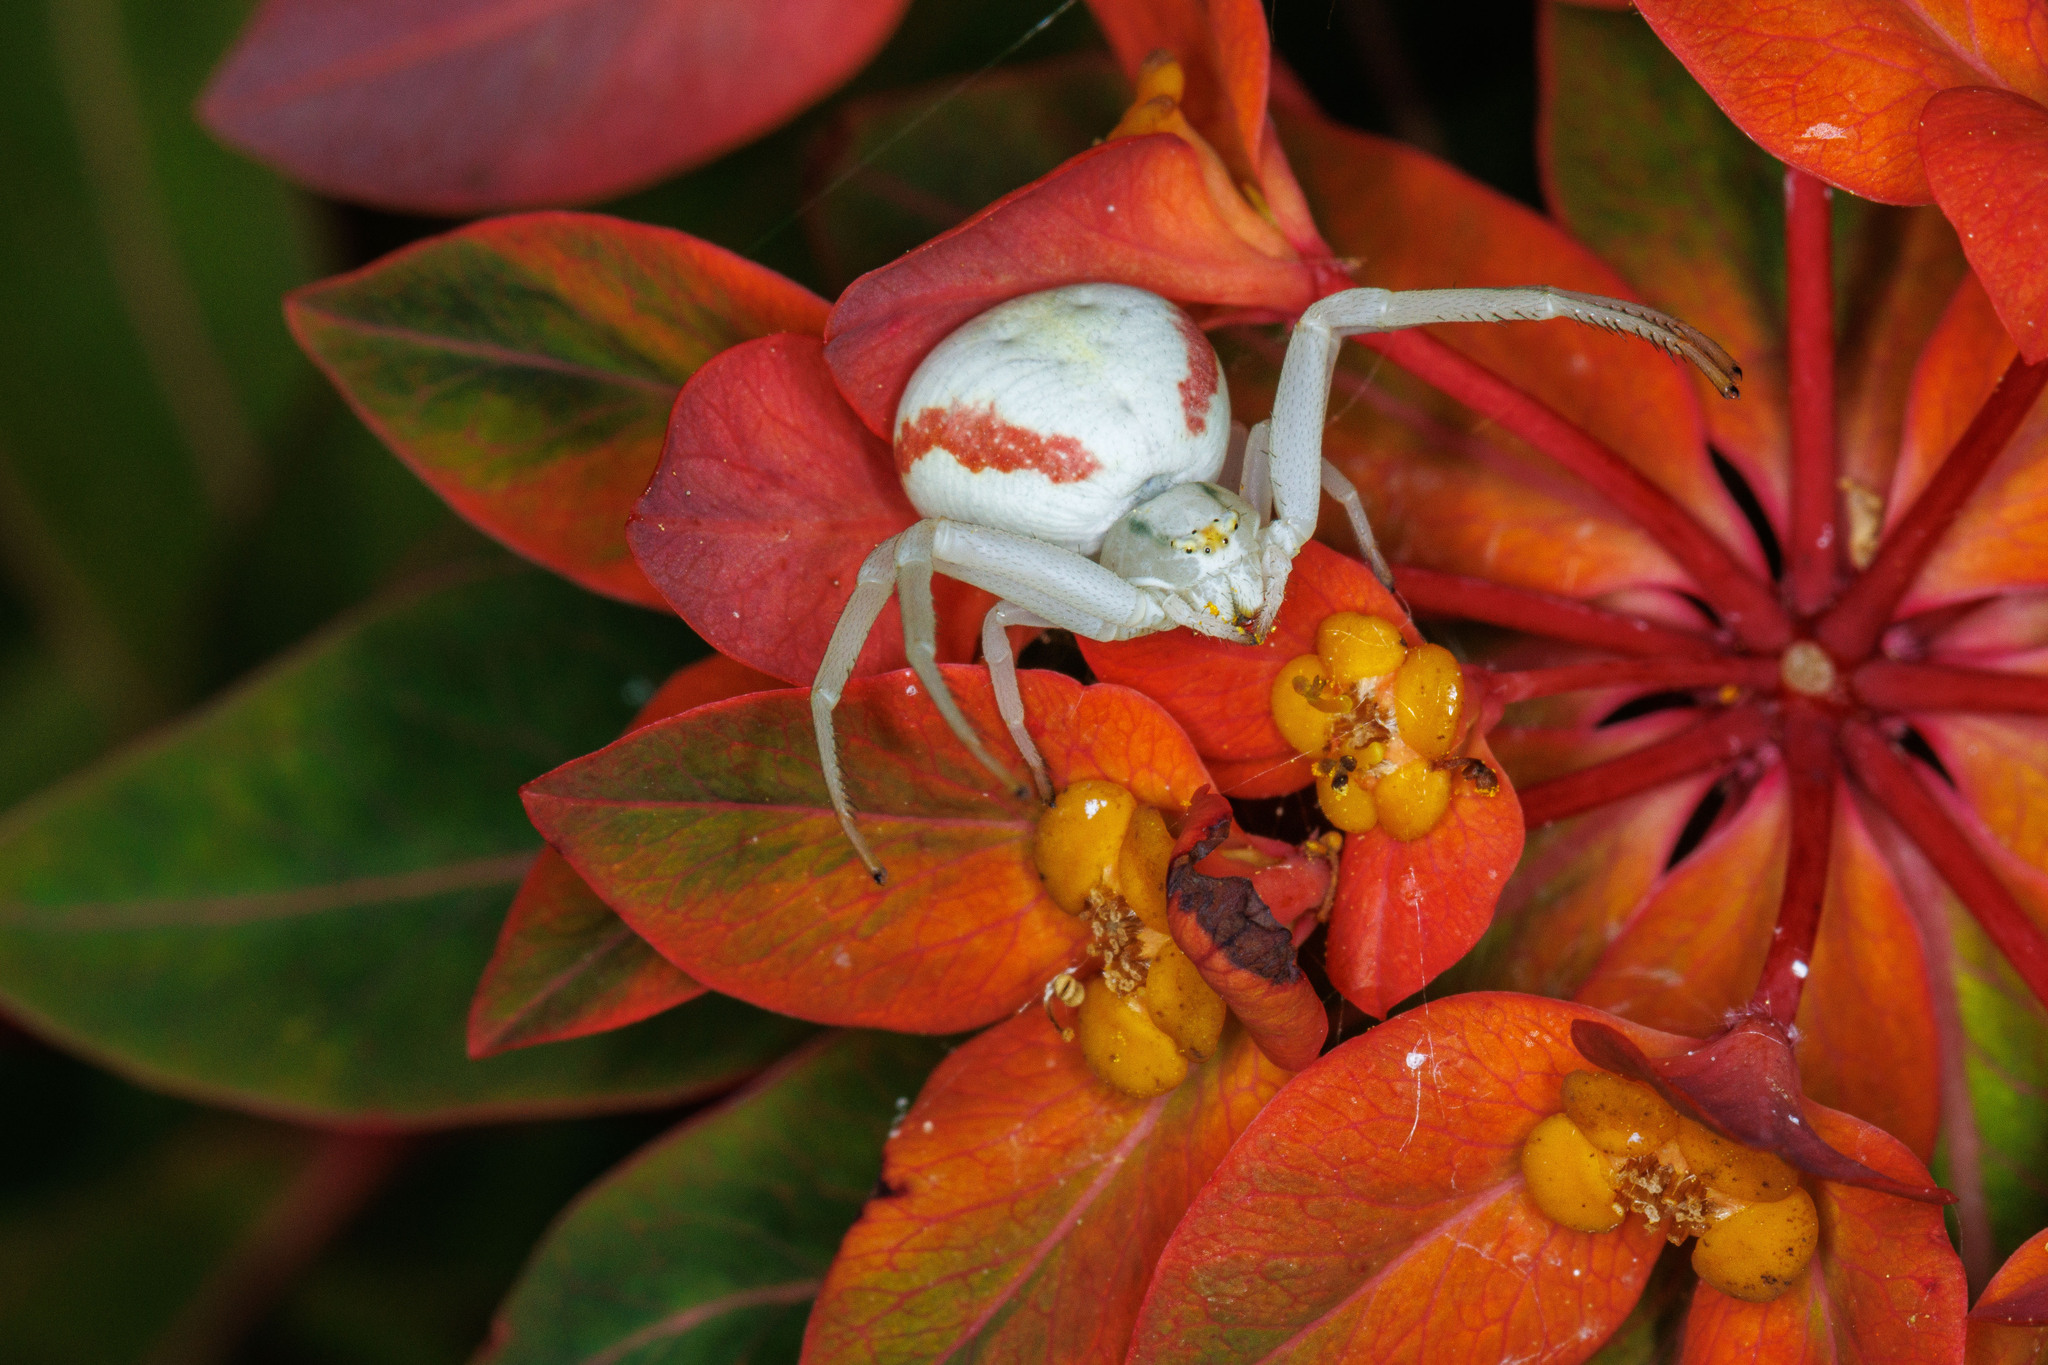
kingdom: Animalia
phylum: Arthropoda
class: Arachnida
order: Araneae
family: Thomisidae
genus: Misumena
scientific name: Misumena vatia
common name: Goldenrod crab spider
